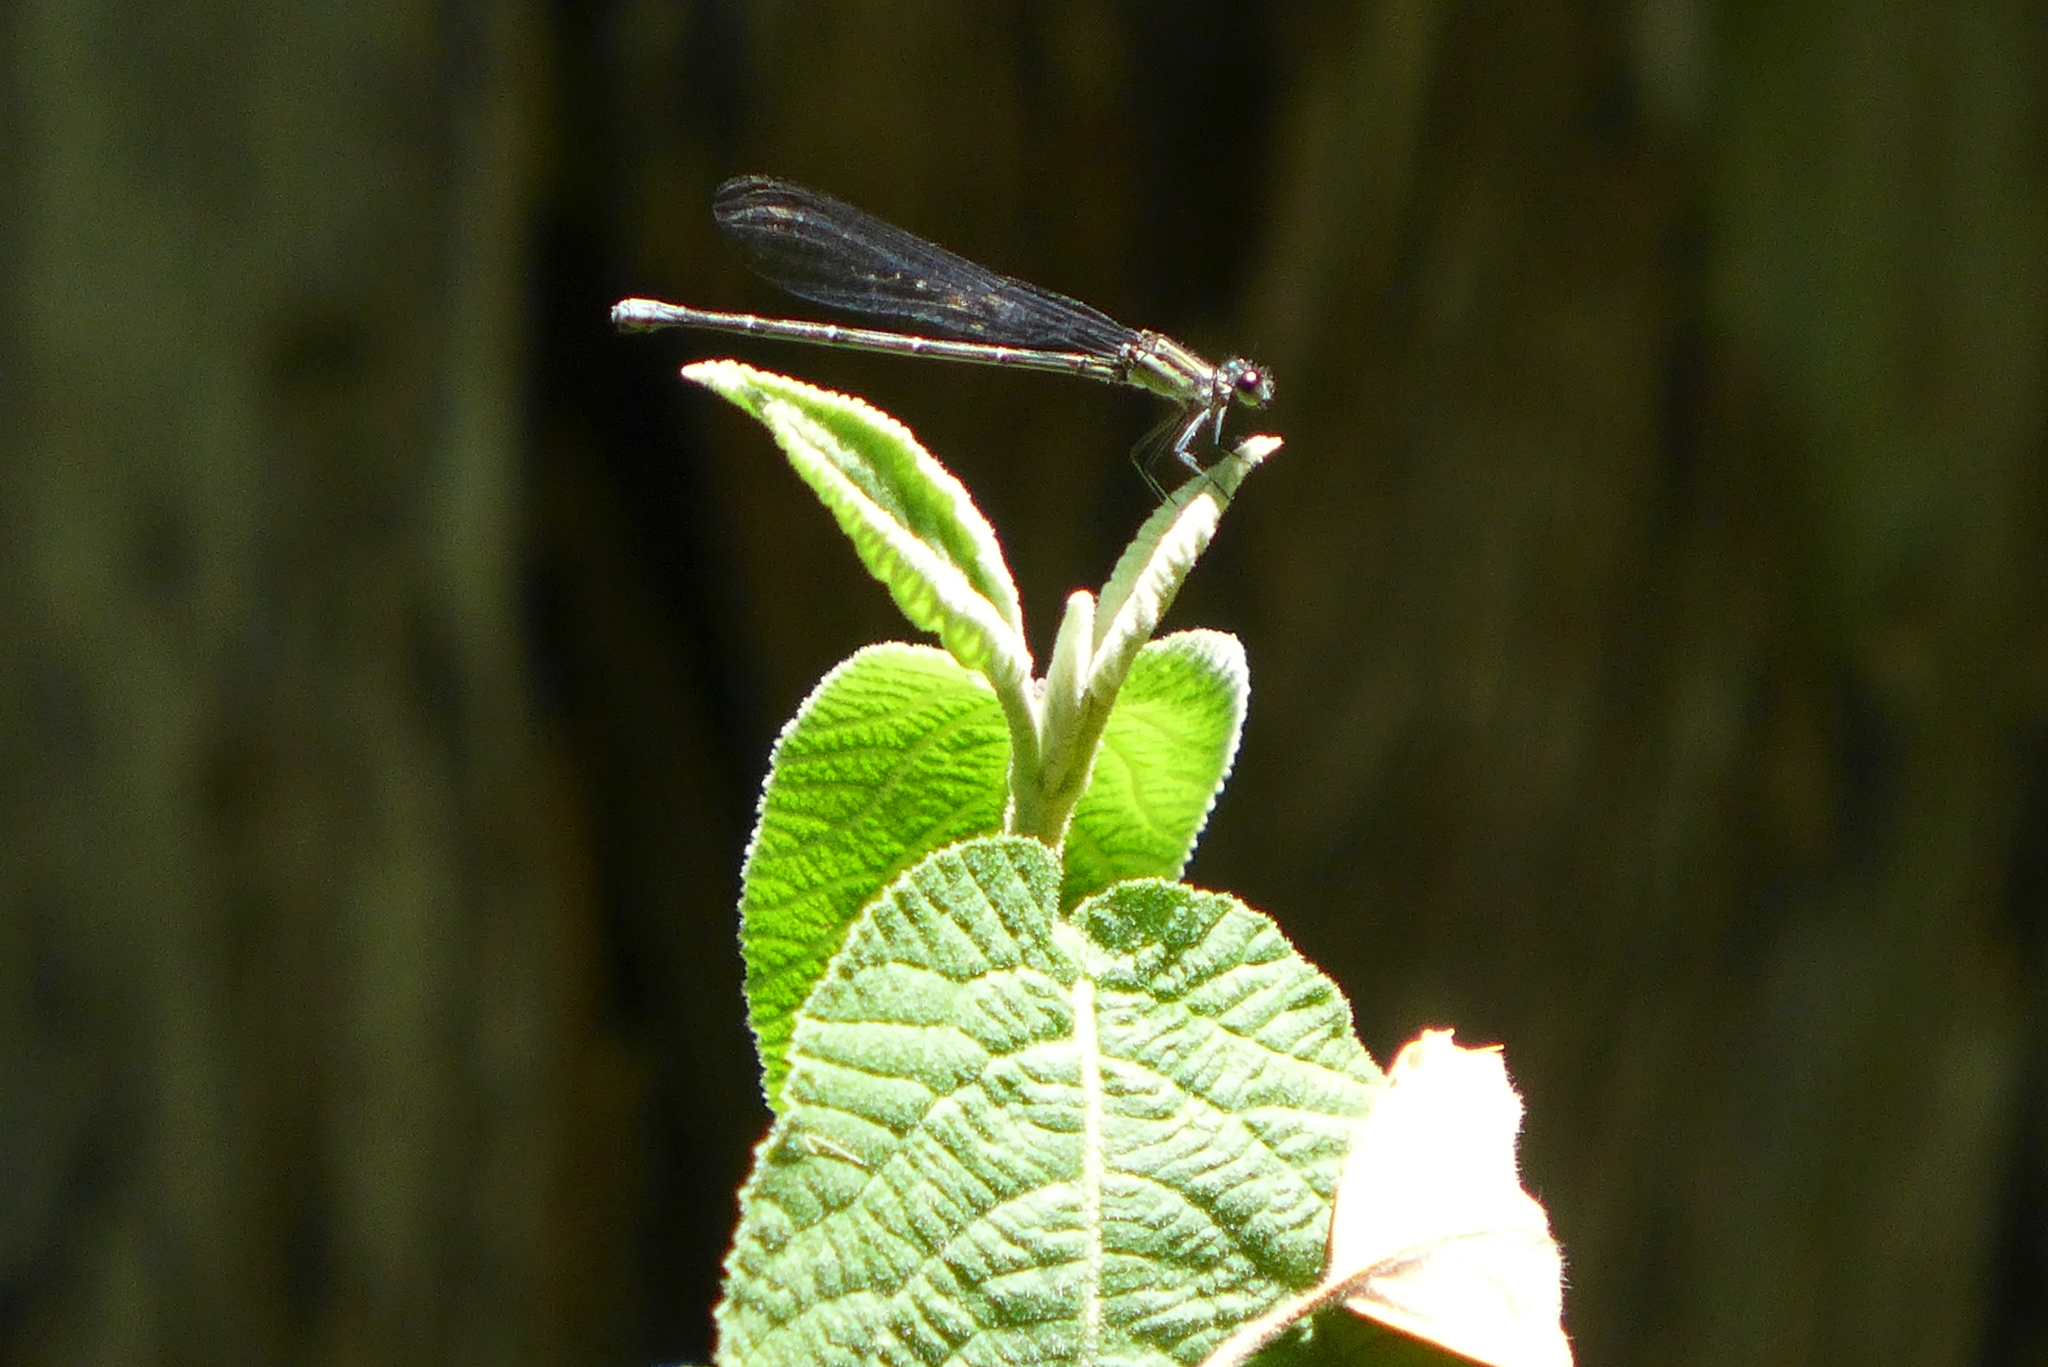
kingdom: Animalia
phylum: Arthropoda
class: Insecta
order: Odonata
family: Coenagrionidae
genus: Argia
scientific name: Argia translata
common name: Dusky dancer
